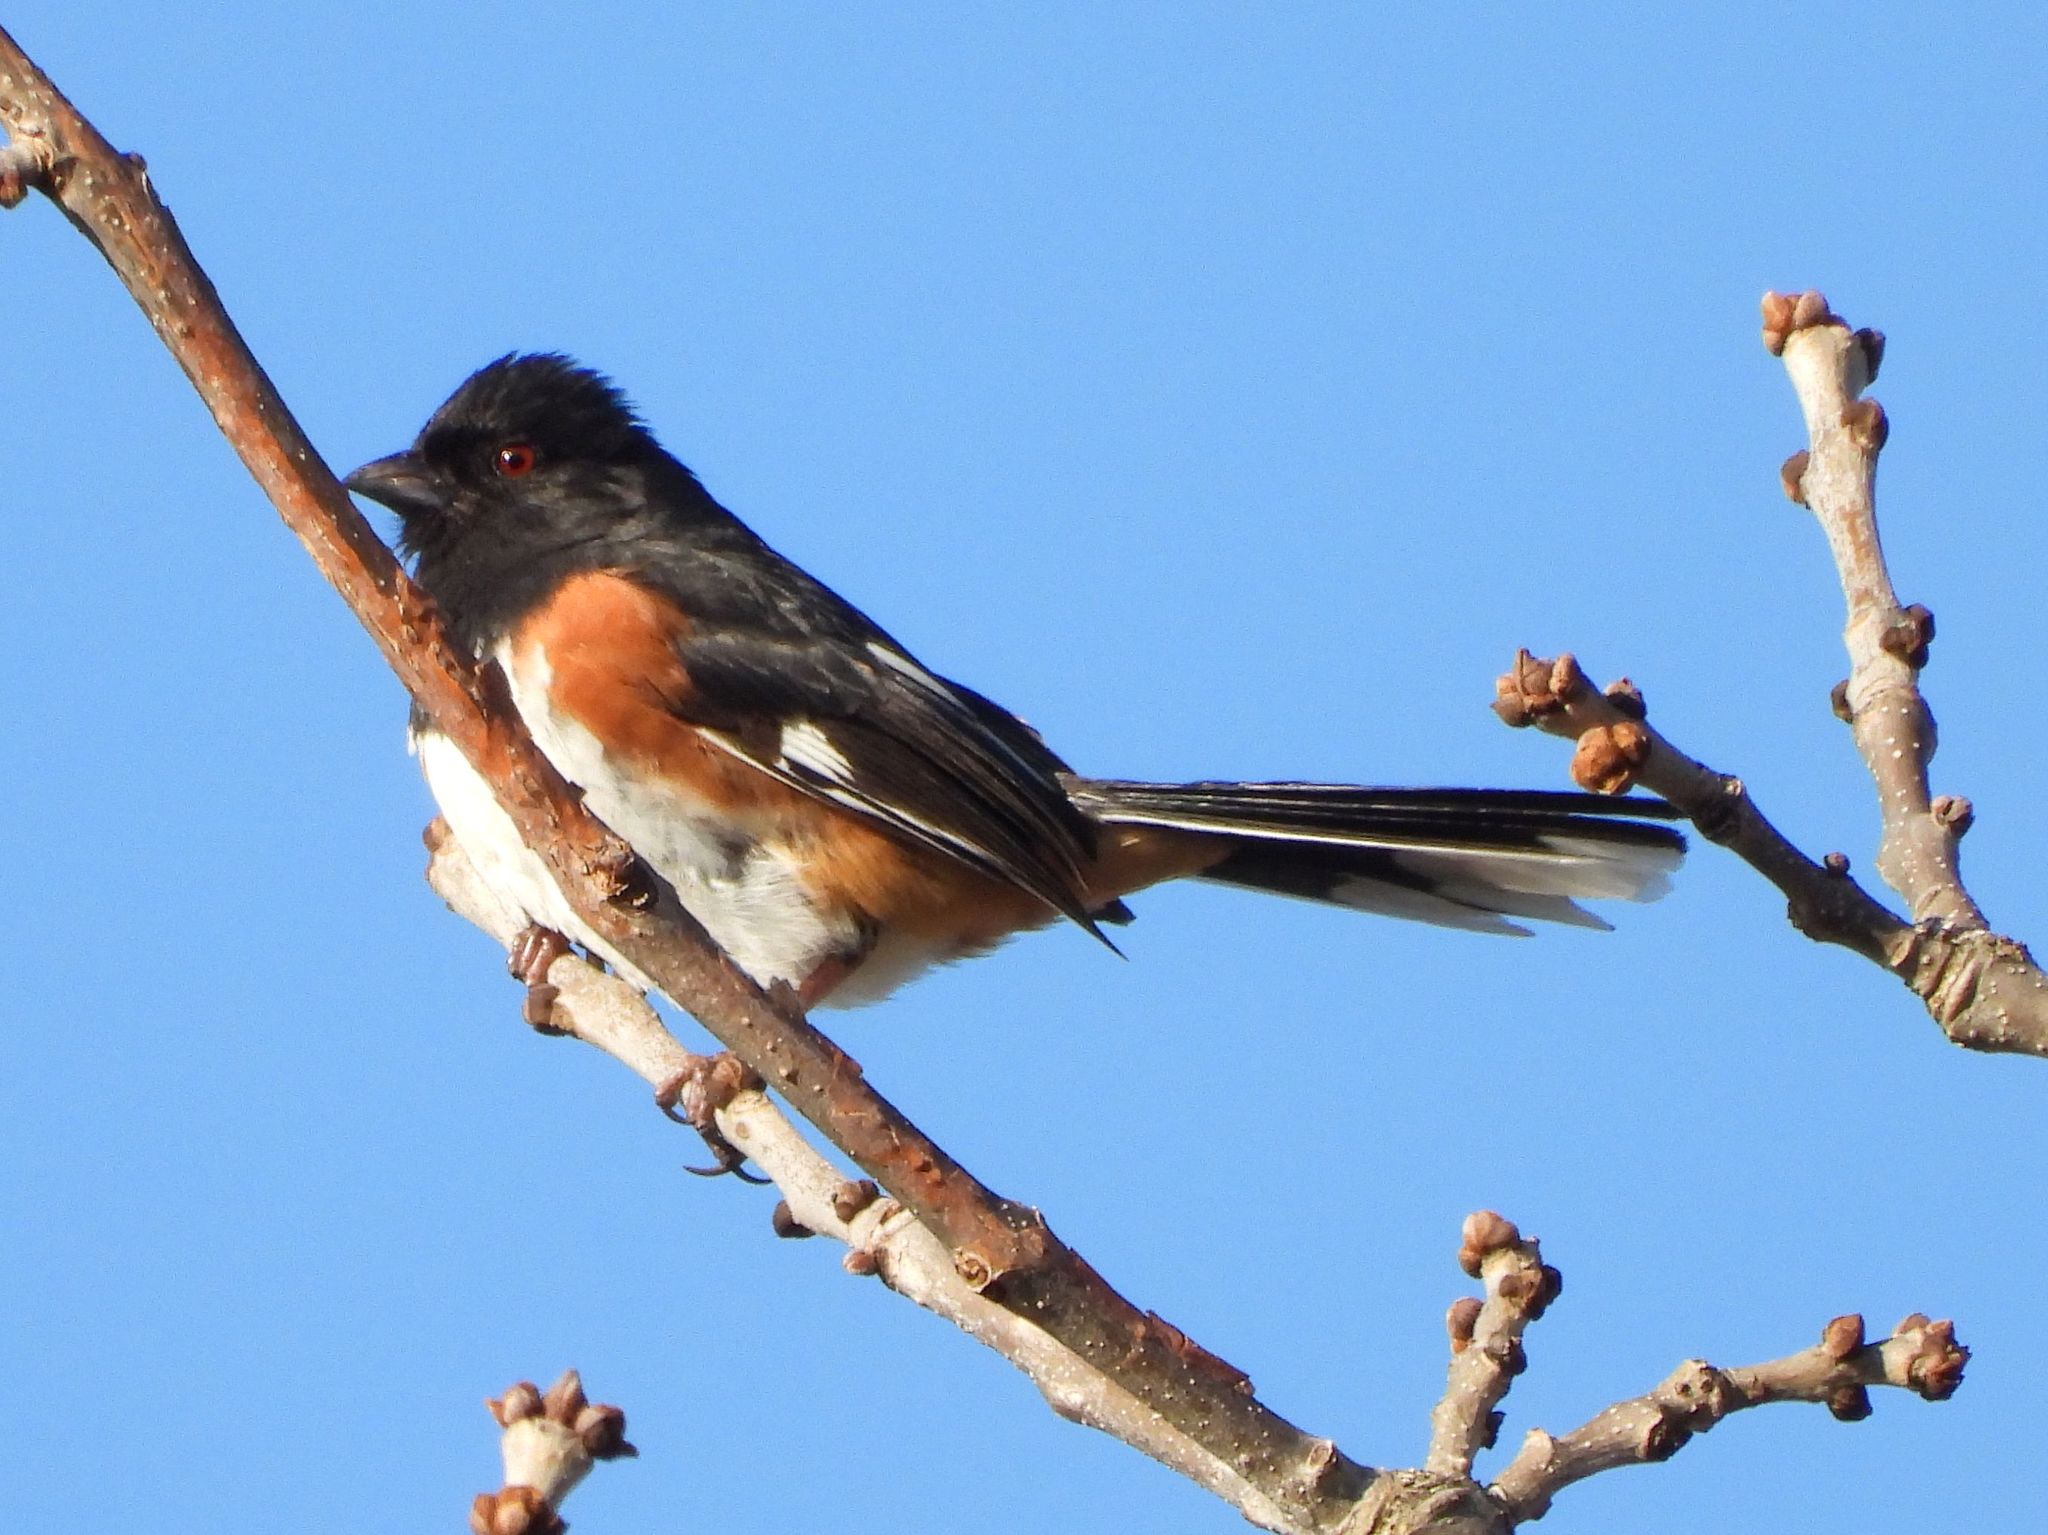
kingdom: Animalia
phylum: Chordata
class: Aves
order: Passeriformes
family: Passerellidae
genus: Pipilo
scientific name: Pipilo erythrophthalmus
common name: Eastern towhee
